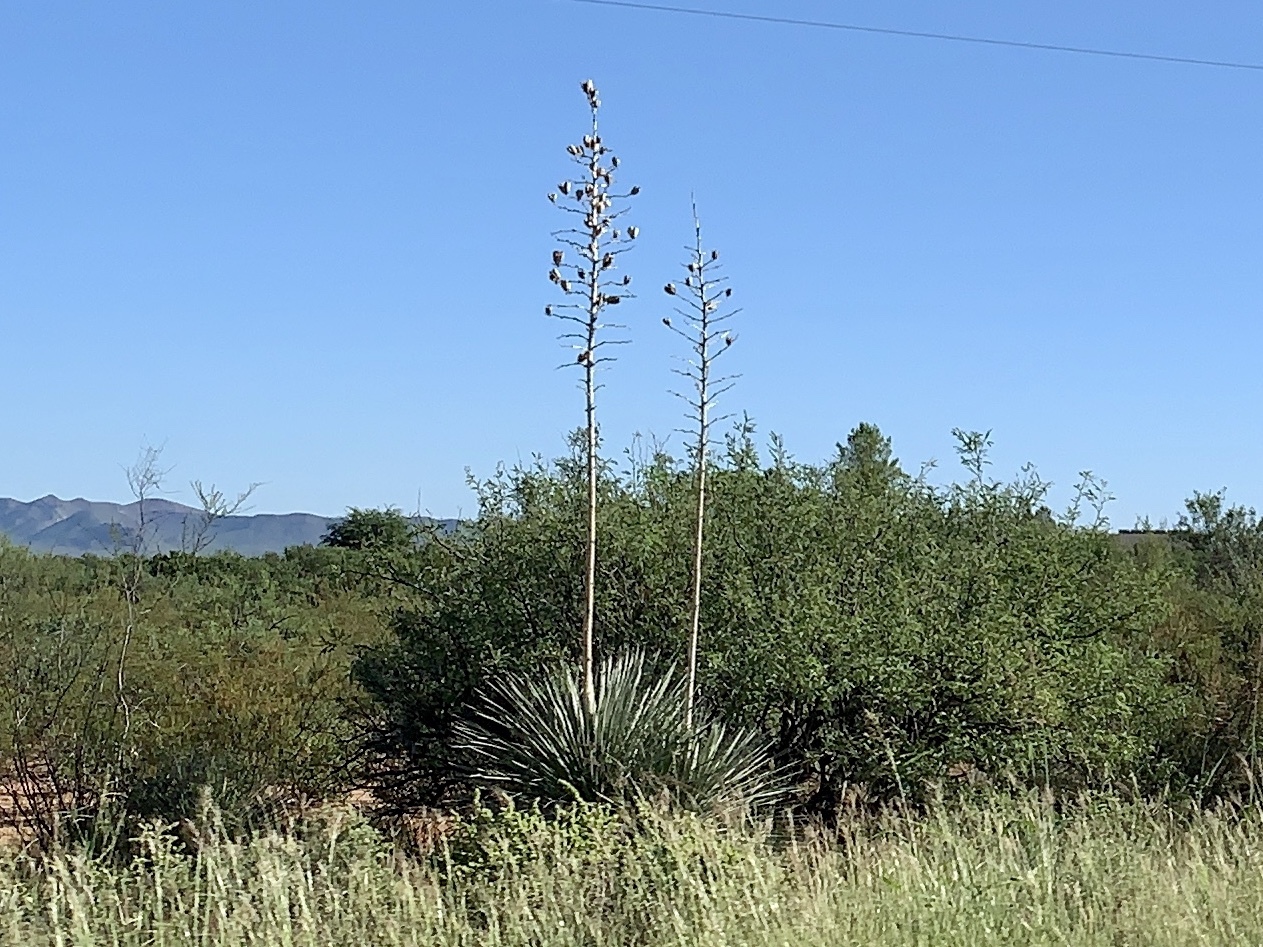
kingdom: Plantae
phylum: Tracheophyta
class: Liliopsida
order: Asparagales
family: Asparagaceae
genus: Yucca
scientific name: Yucca elata
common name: Palmella
